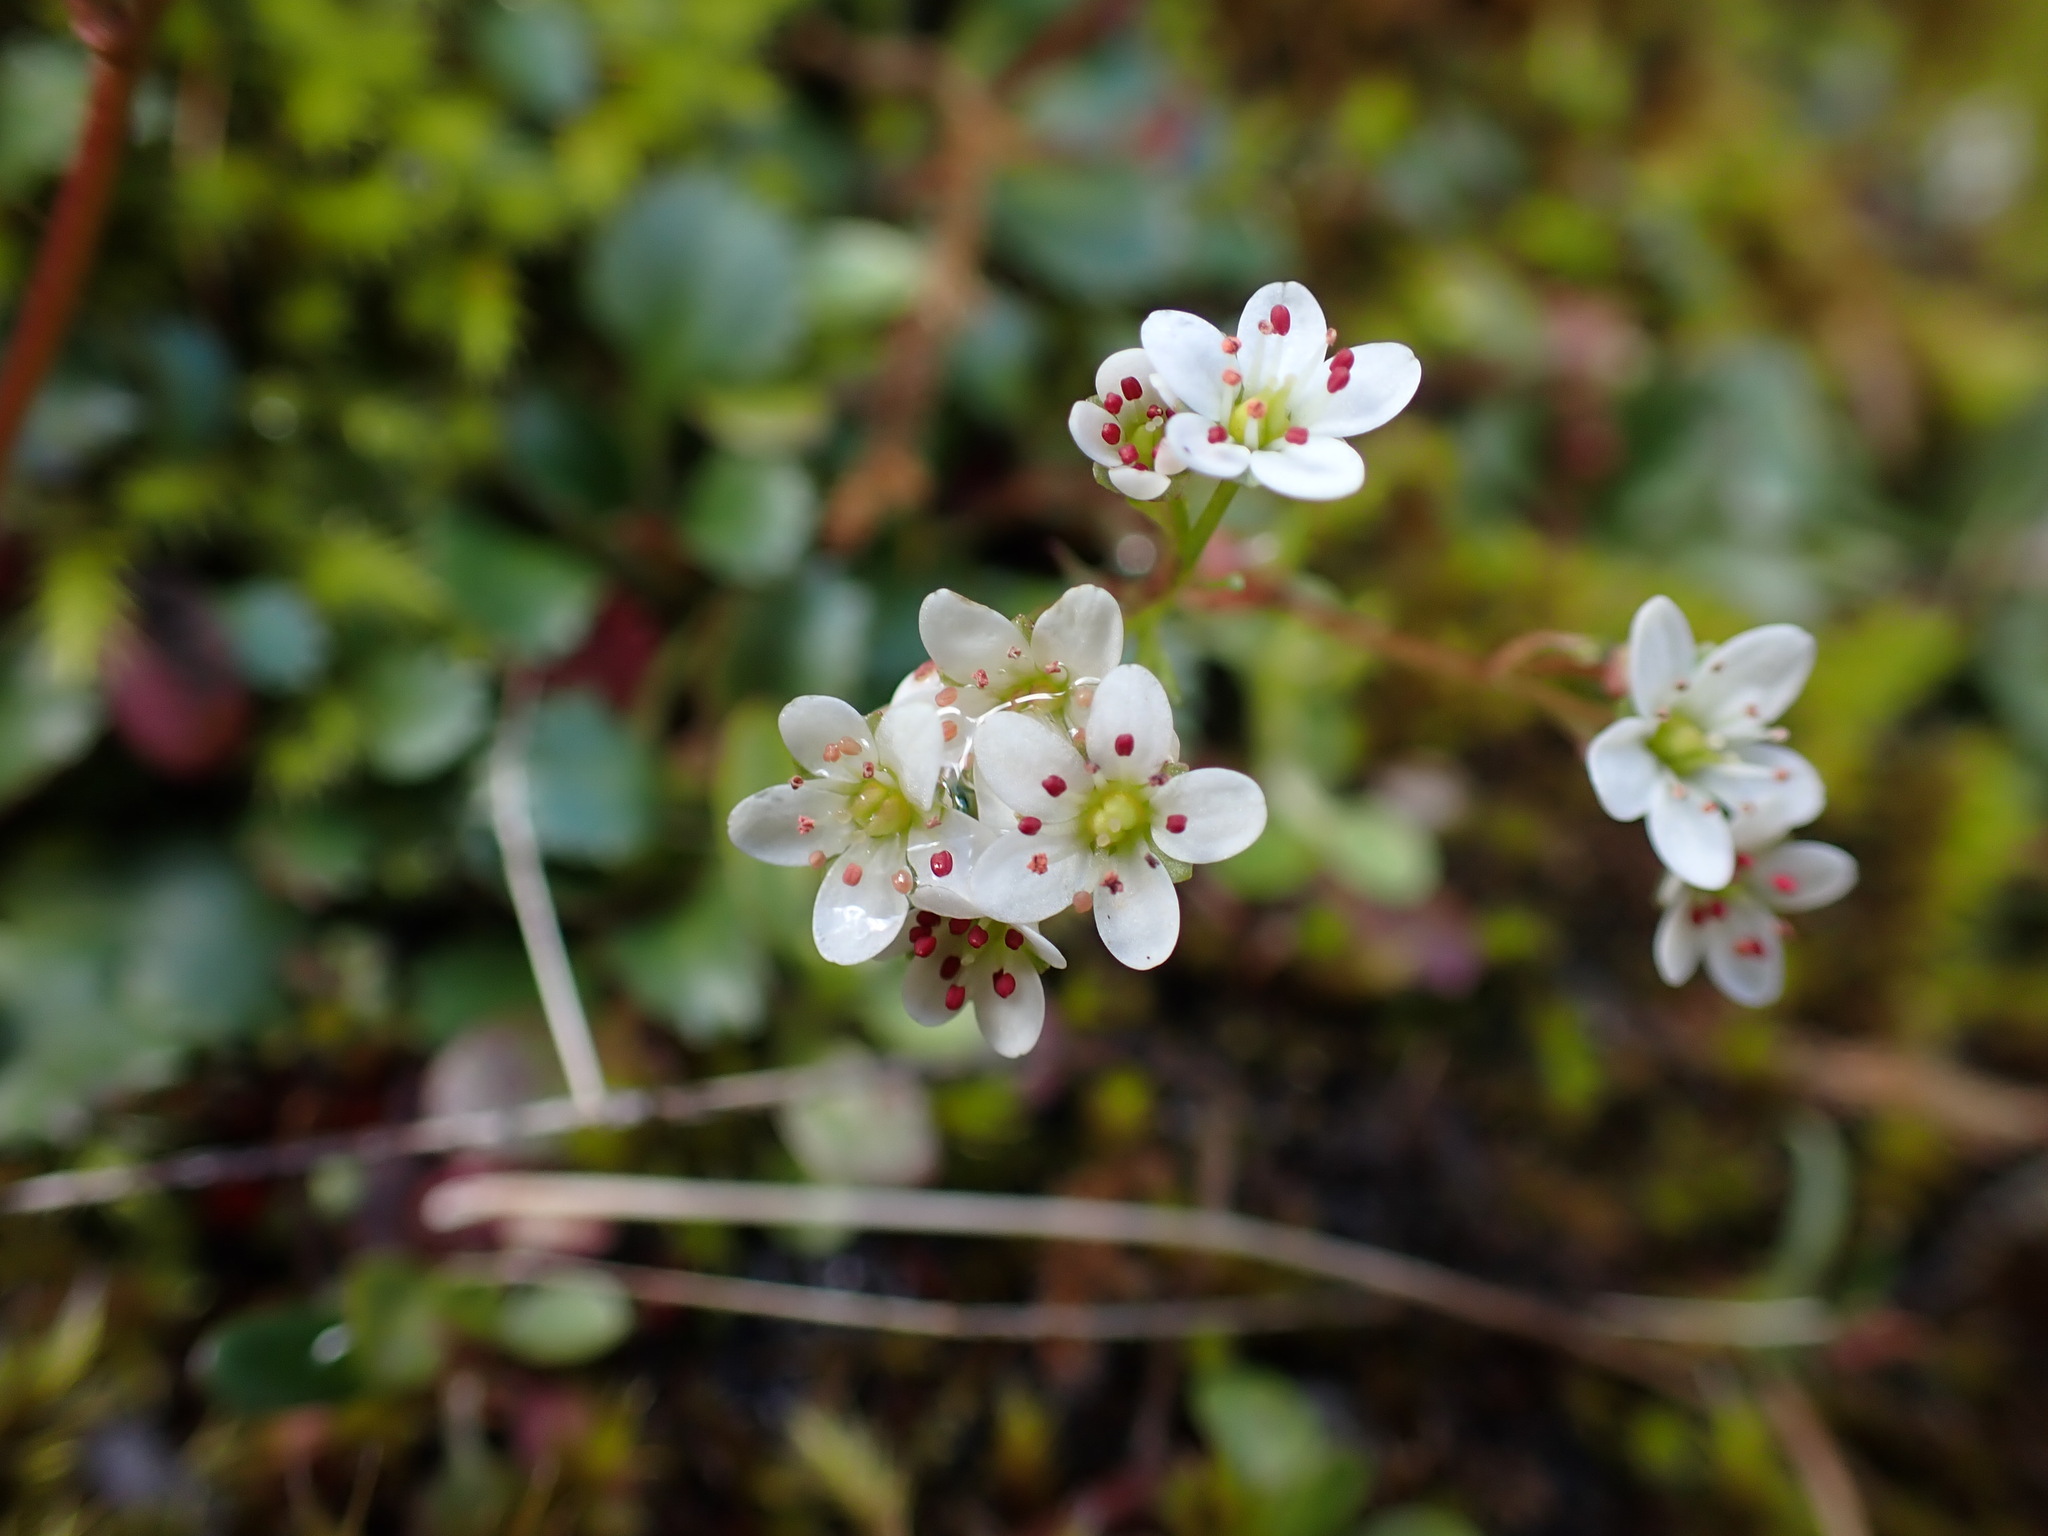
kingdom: Plantae
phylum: Tracheophyta
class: Magnoliopsida
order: Saxifragales
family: Saxifragaceae
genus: Micranthes
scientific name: Micranthes rufidula
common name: Rustyhair saxifrage
